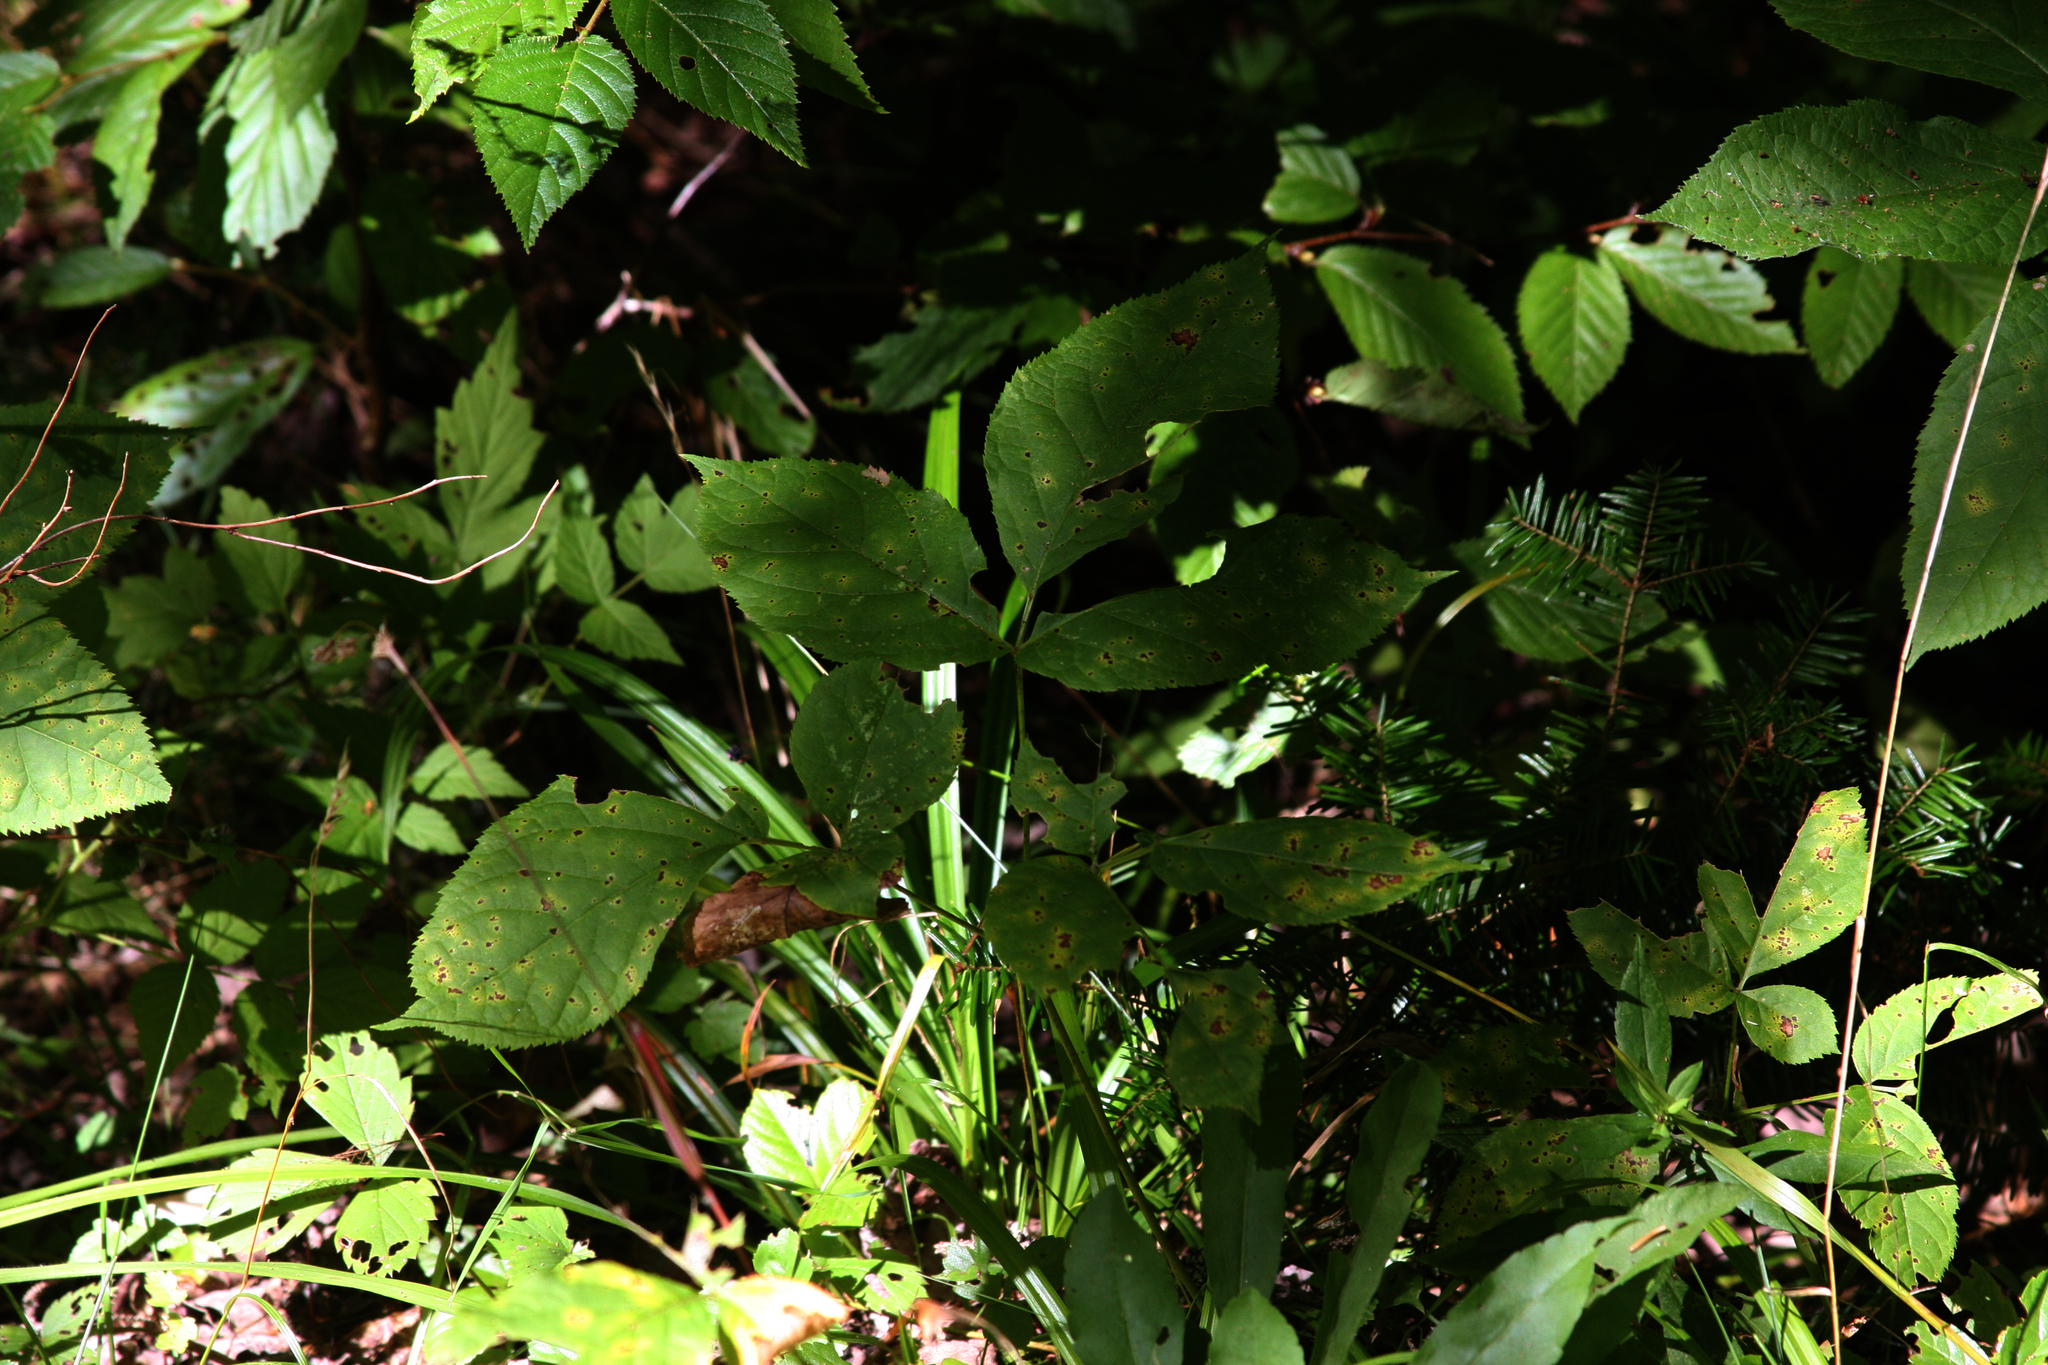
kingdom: Plantae
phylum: Tracheophyta
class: Pinopsida
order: Pinales
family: Pinaceae
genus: Abies
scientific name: Abies balsamea
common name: Balsam fir
